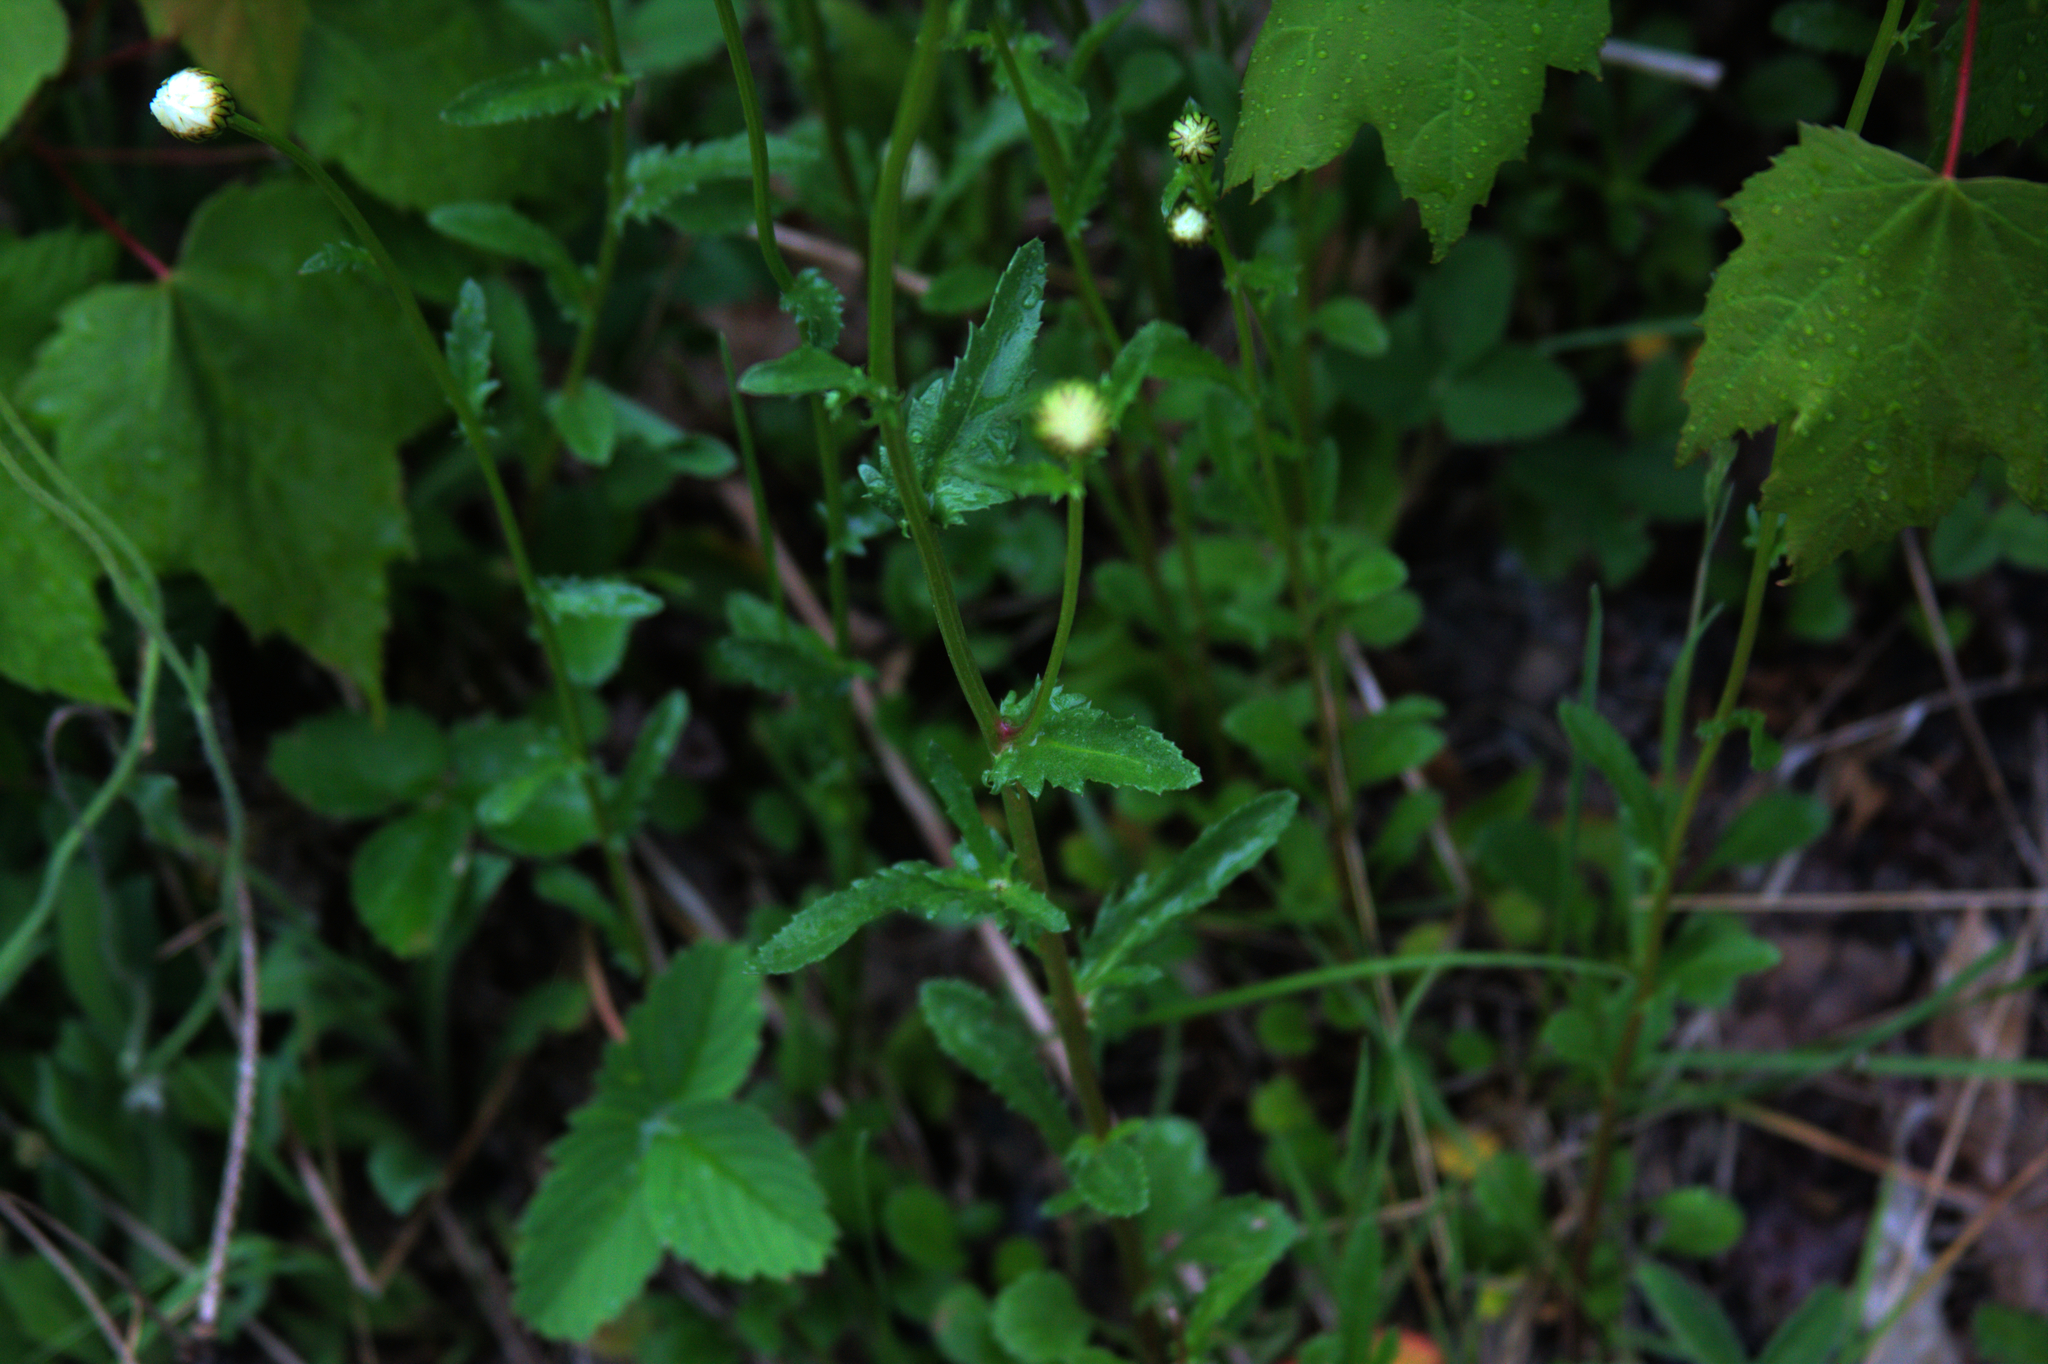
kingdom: Plantae
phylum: Tracheophyta
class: Magnoliopsida
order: Asterales
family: Asteraceae
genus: Leucanthemum
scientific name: Leucanthemum vulgare
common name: Oxeye daisy
